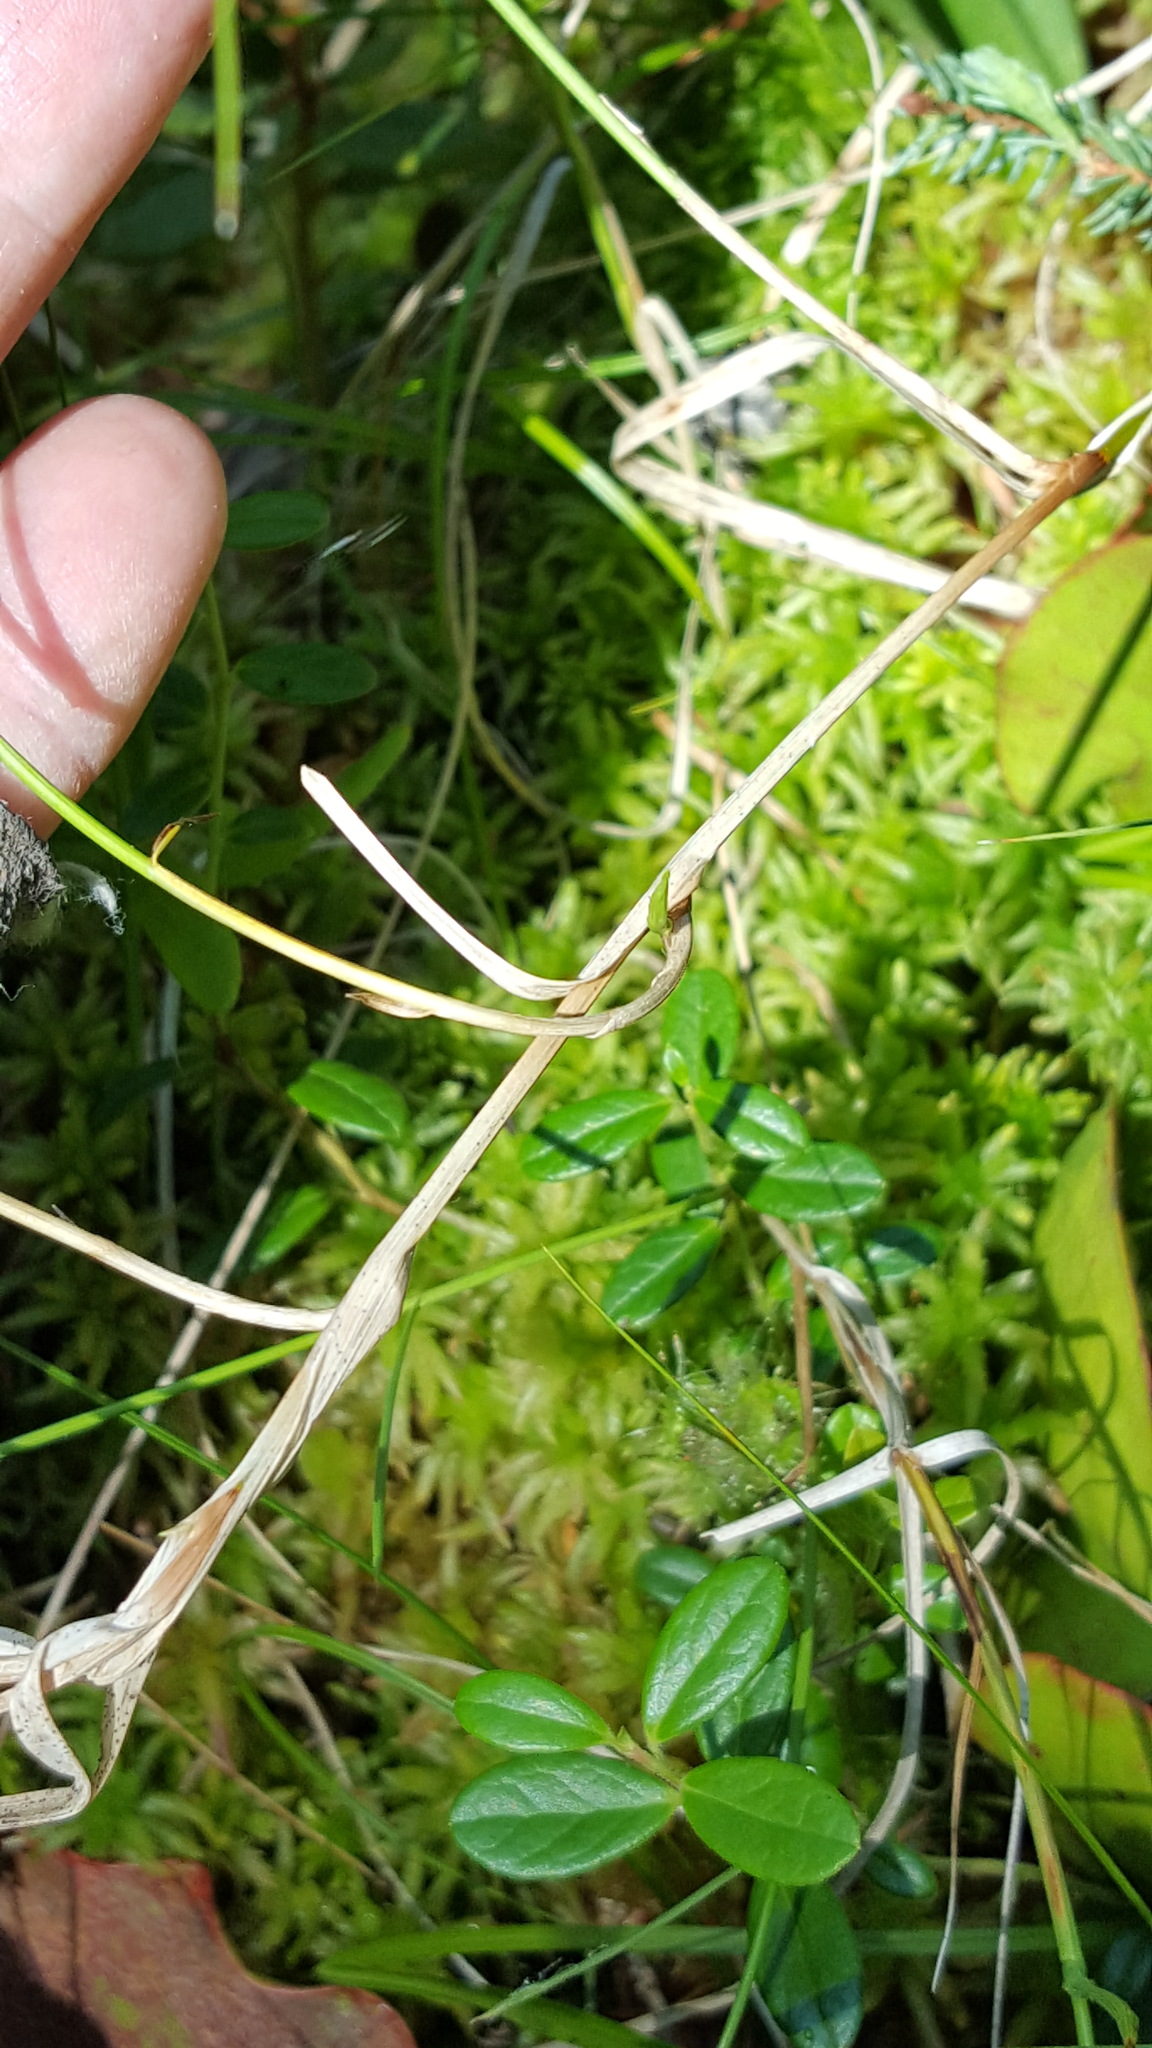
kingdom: Plantae
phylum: Tracheophyta
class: Liliopsida
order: Poales
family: Cyperaceae
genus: Carex
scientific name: Carex chordorrhiza
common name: String sedge
